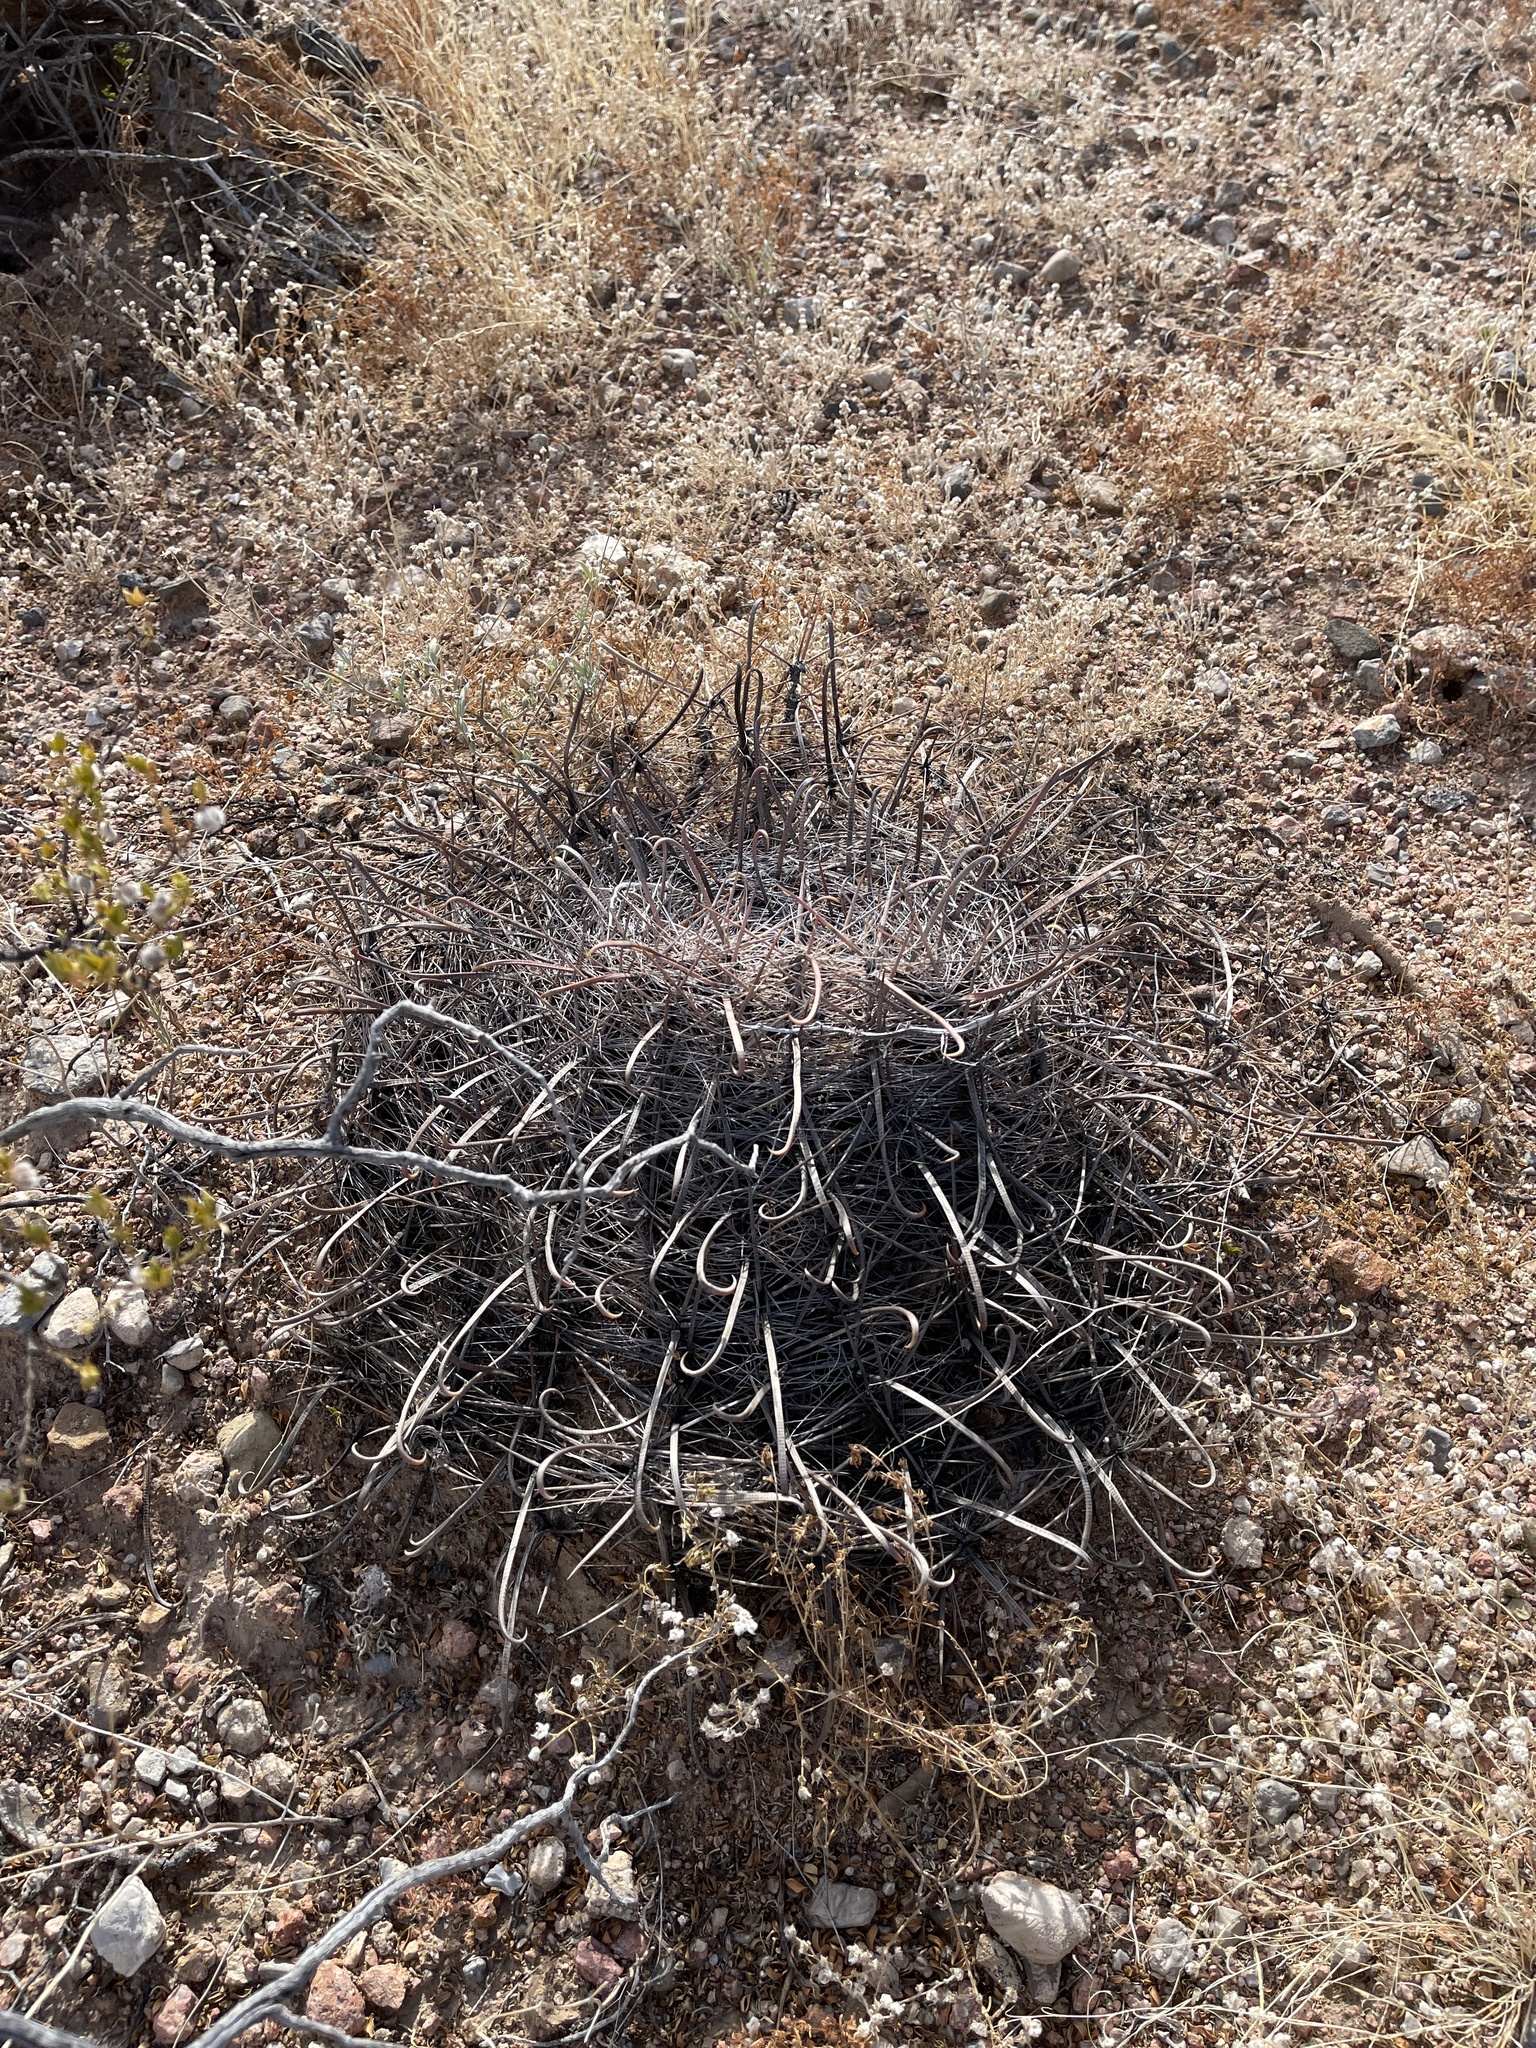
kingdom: Plantae
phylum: Tracheophyta
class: Magnoliopsida
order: Caryophyllales
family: Cactaceae
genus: Ferocactus
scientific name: Ferocactus wislizeni
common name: Candy barrel cactus
